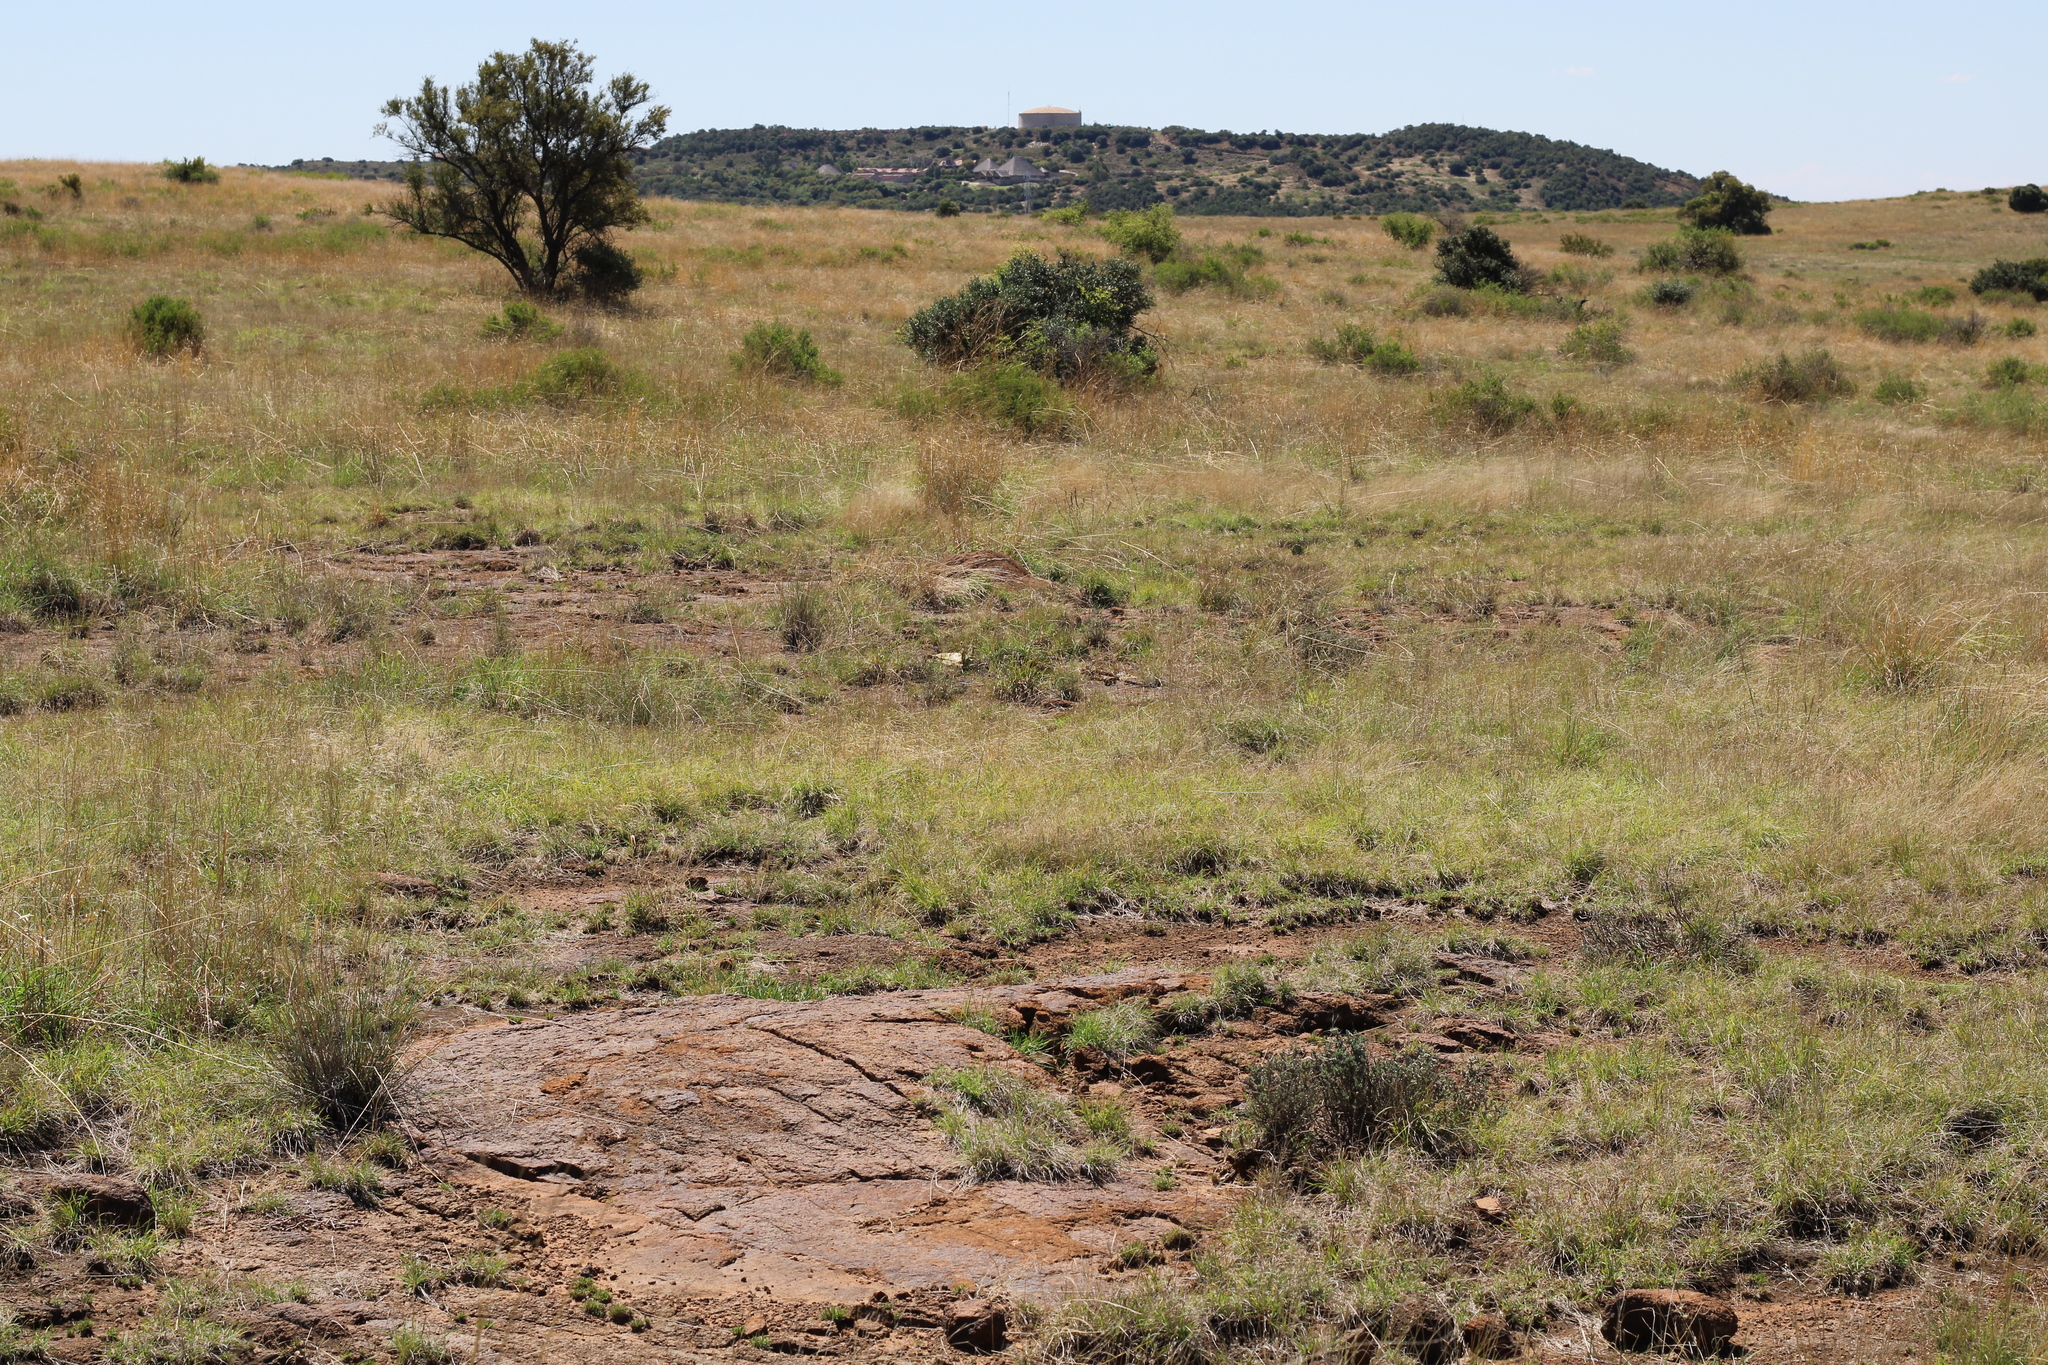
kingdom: Plantae
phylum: Tracheophyta
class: Magnoliopsida
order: Caryophyllales
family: Aizoaceae
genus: Ruschia
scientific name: Ruschia intricata
